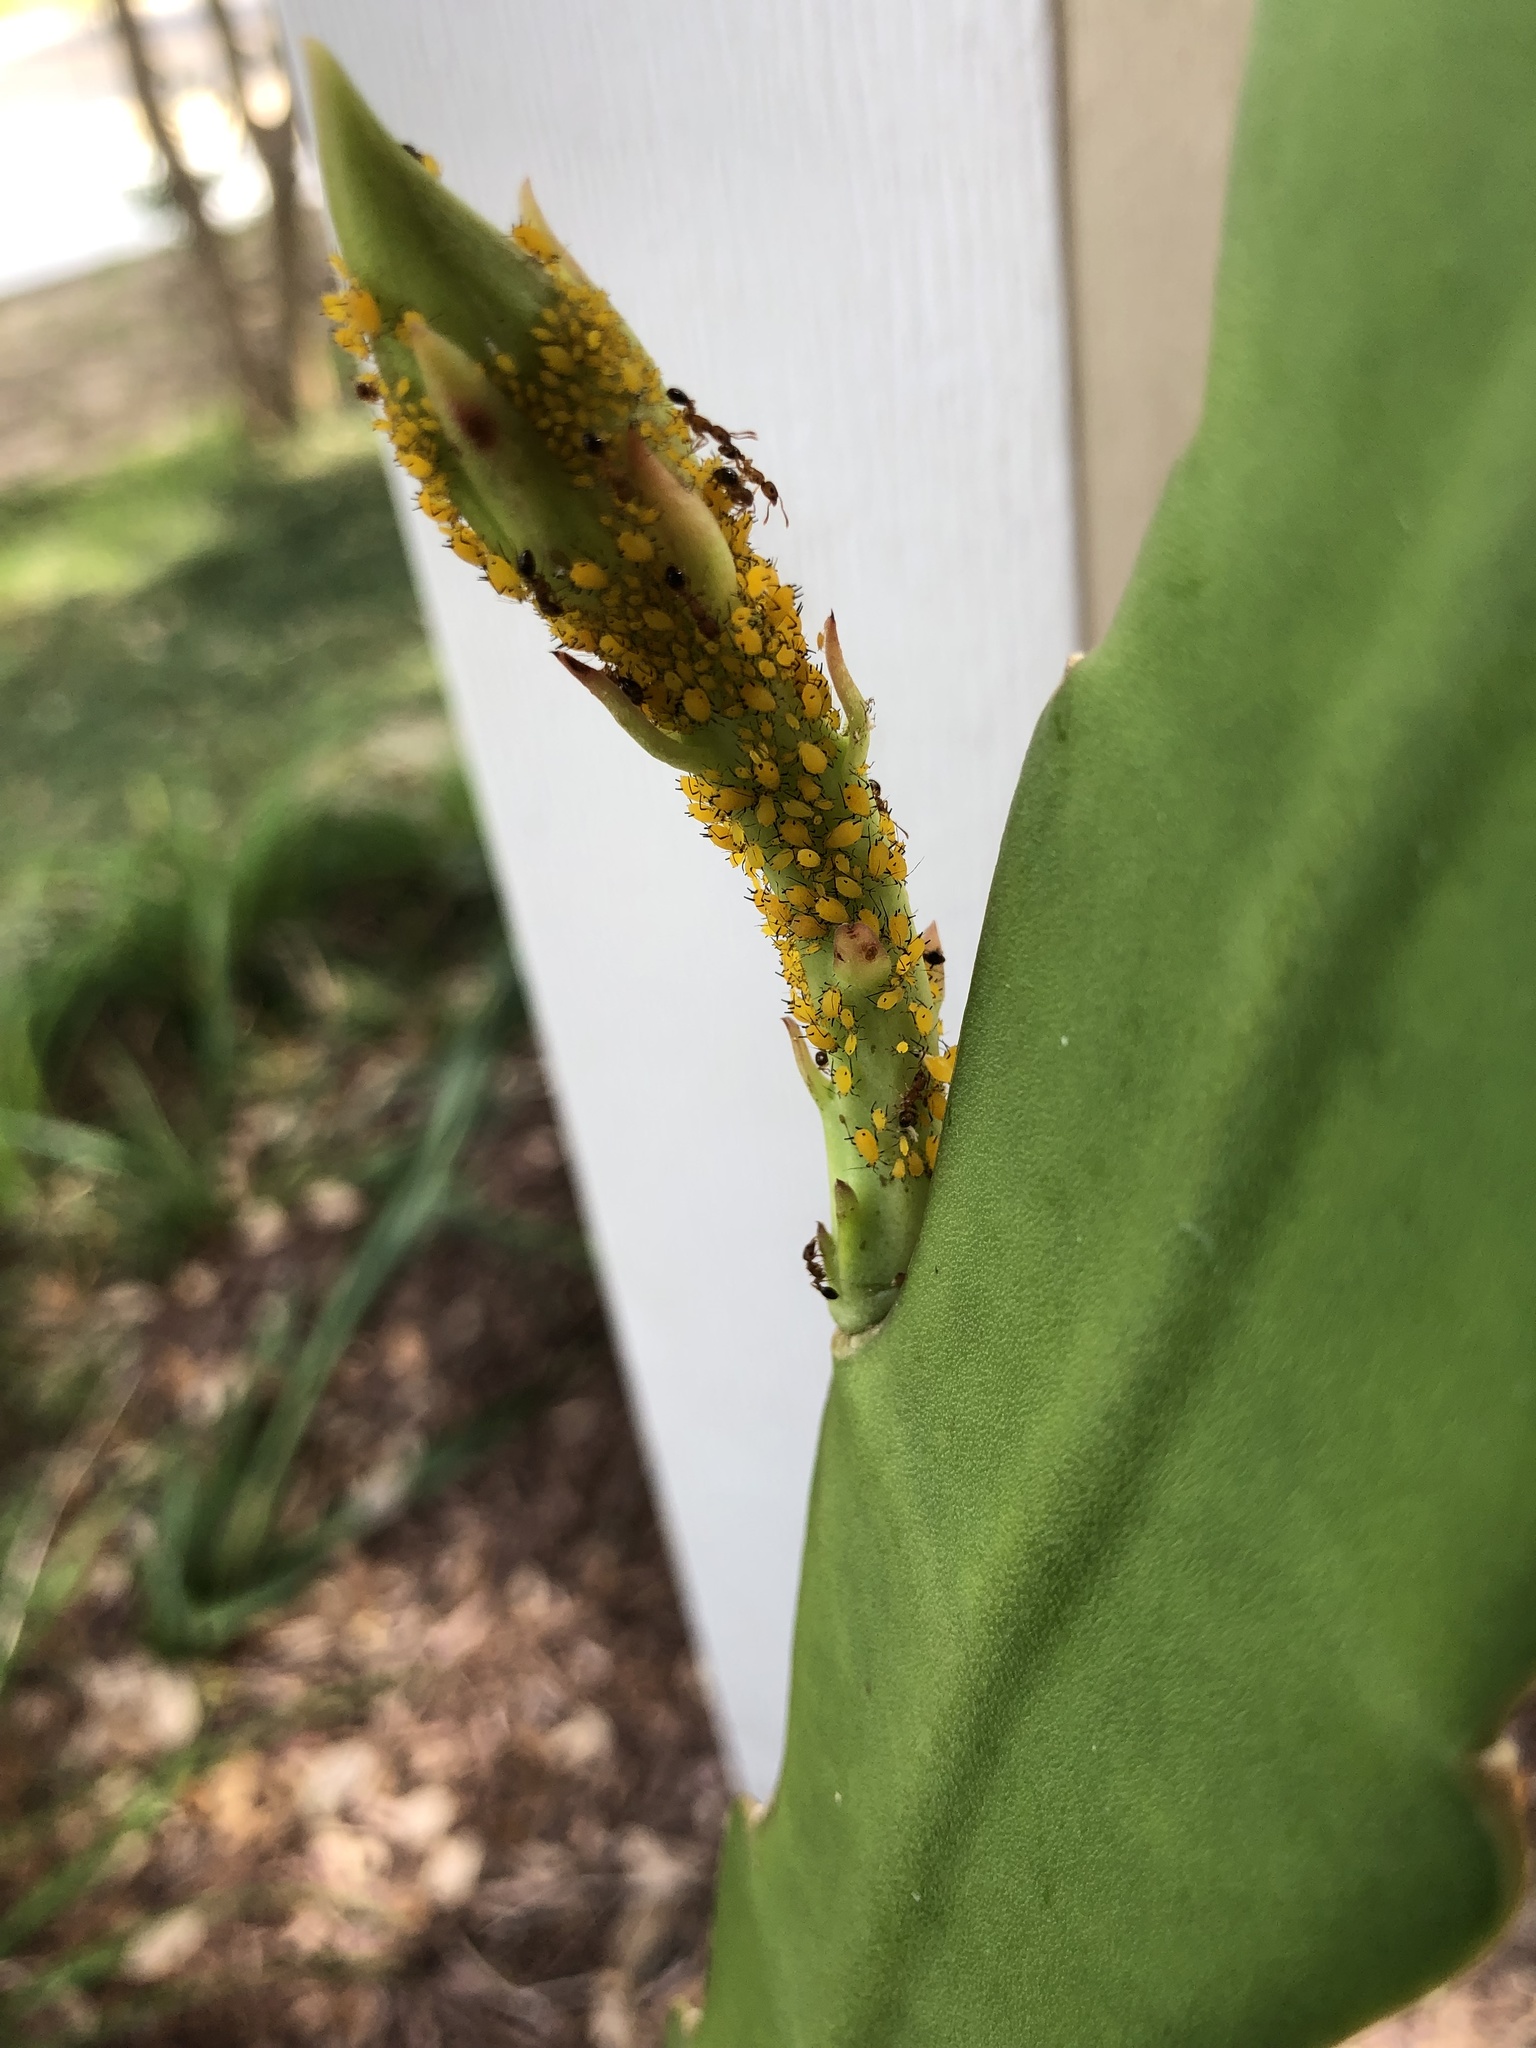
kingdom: Animalia
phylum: Arthropoda
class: Insecta
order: Hymenoptera
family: Formicidae
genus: Tetramorium
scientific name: Tetramorium bicarinatum
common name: Guinea ant
